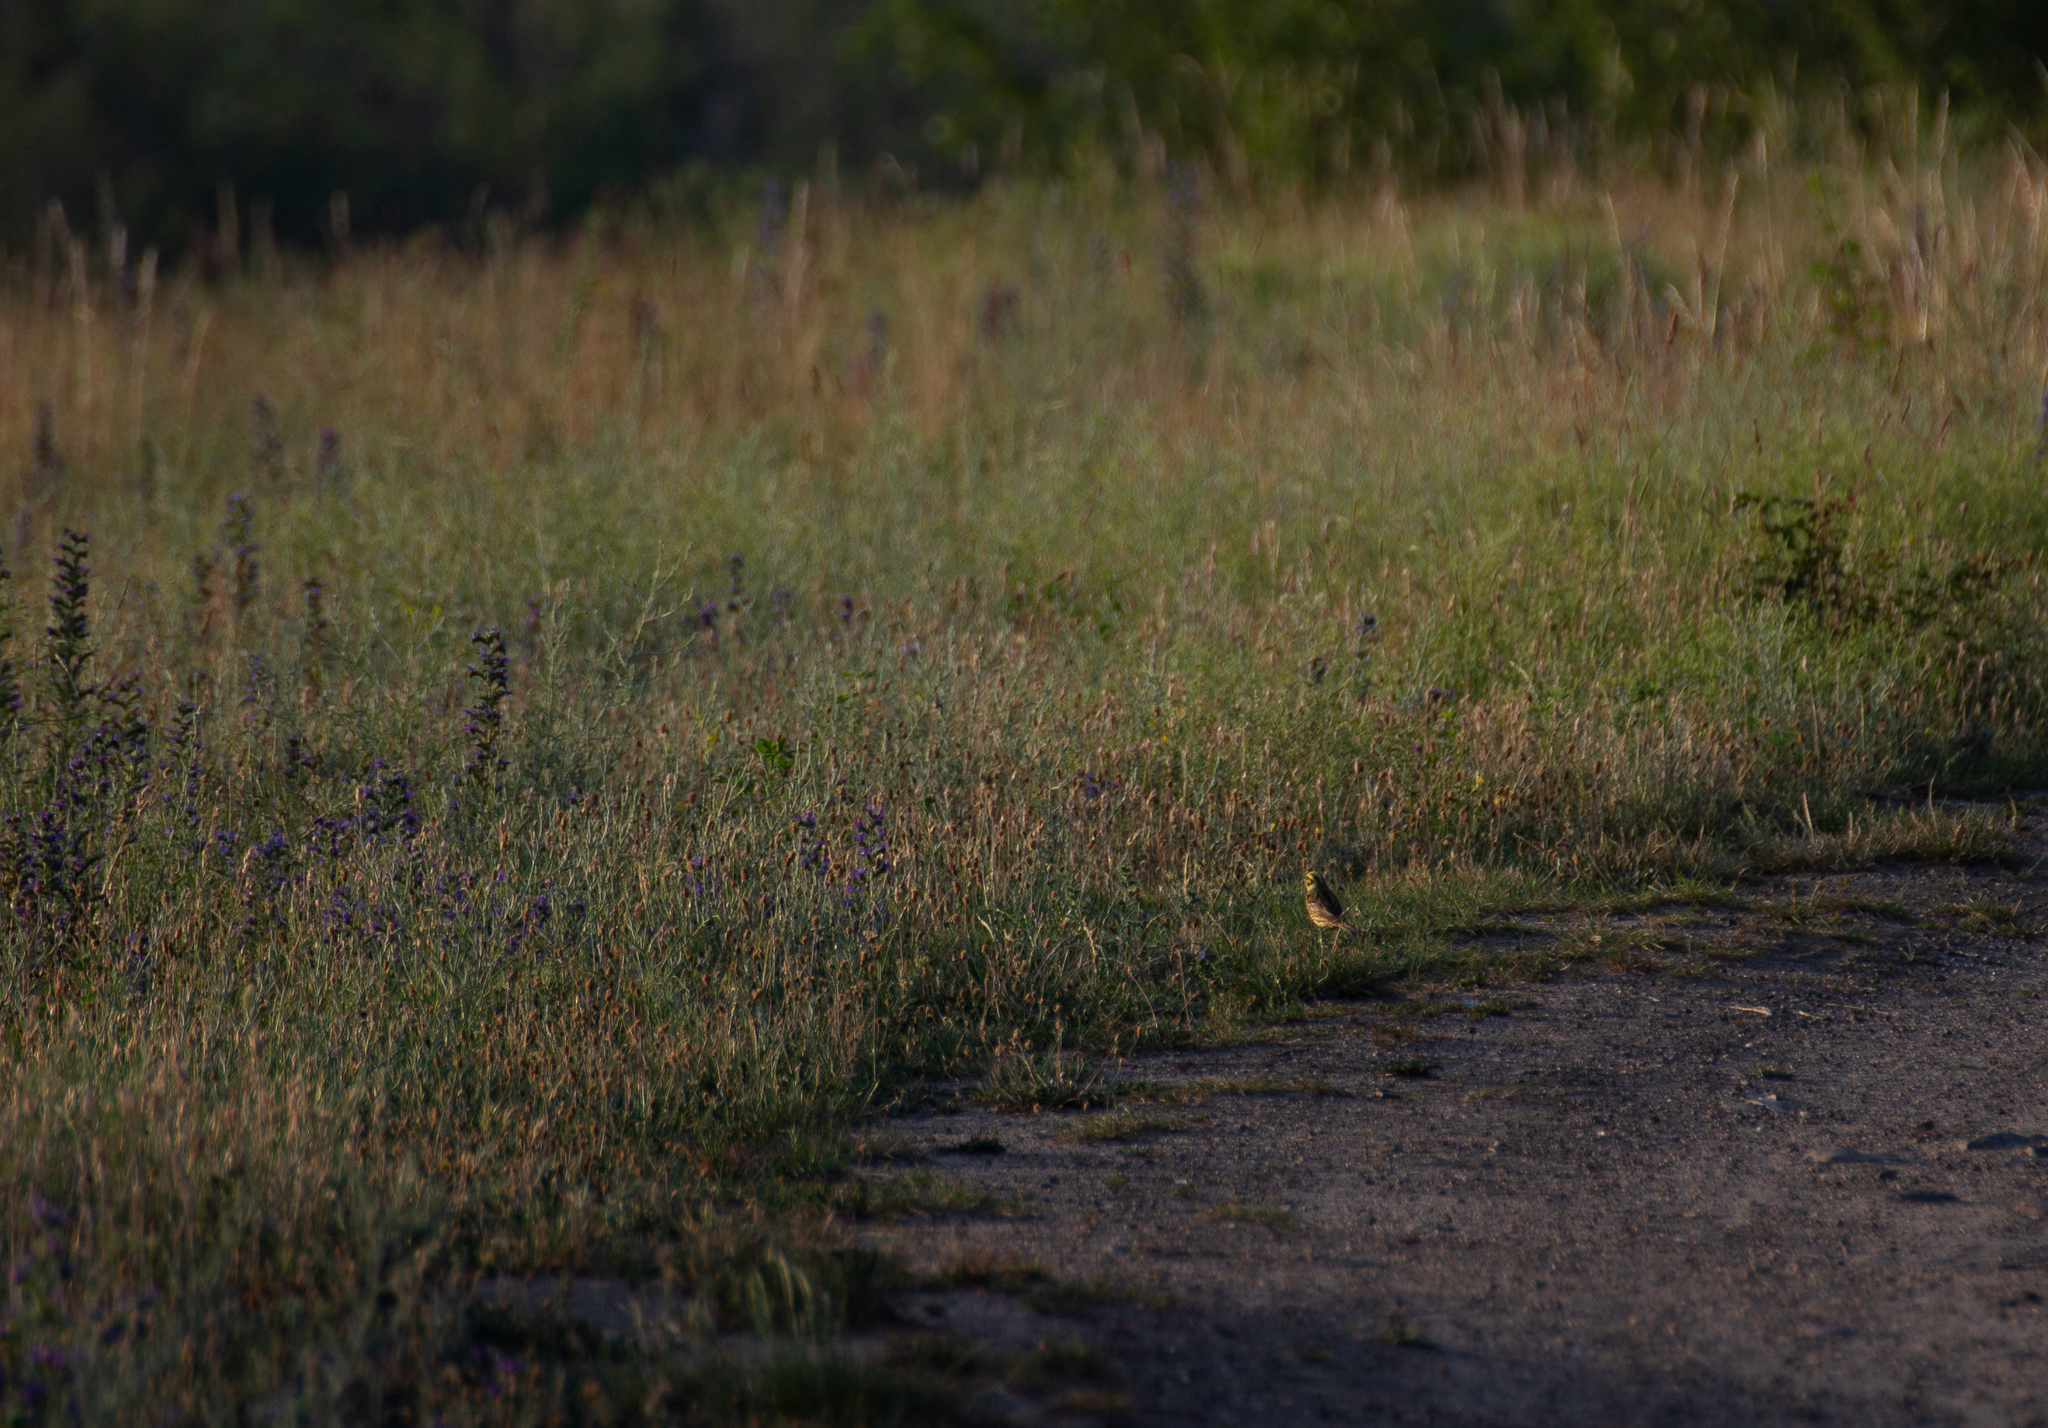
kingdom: Animalia
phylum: Chordata
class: Aves
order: Passeriformes
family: Emberizidae
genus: Emberiza
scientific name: Emberiza citrinella
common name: Yellowhammer
